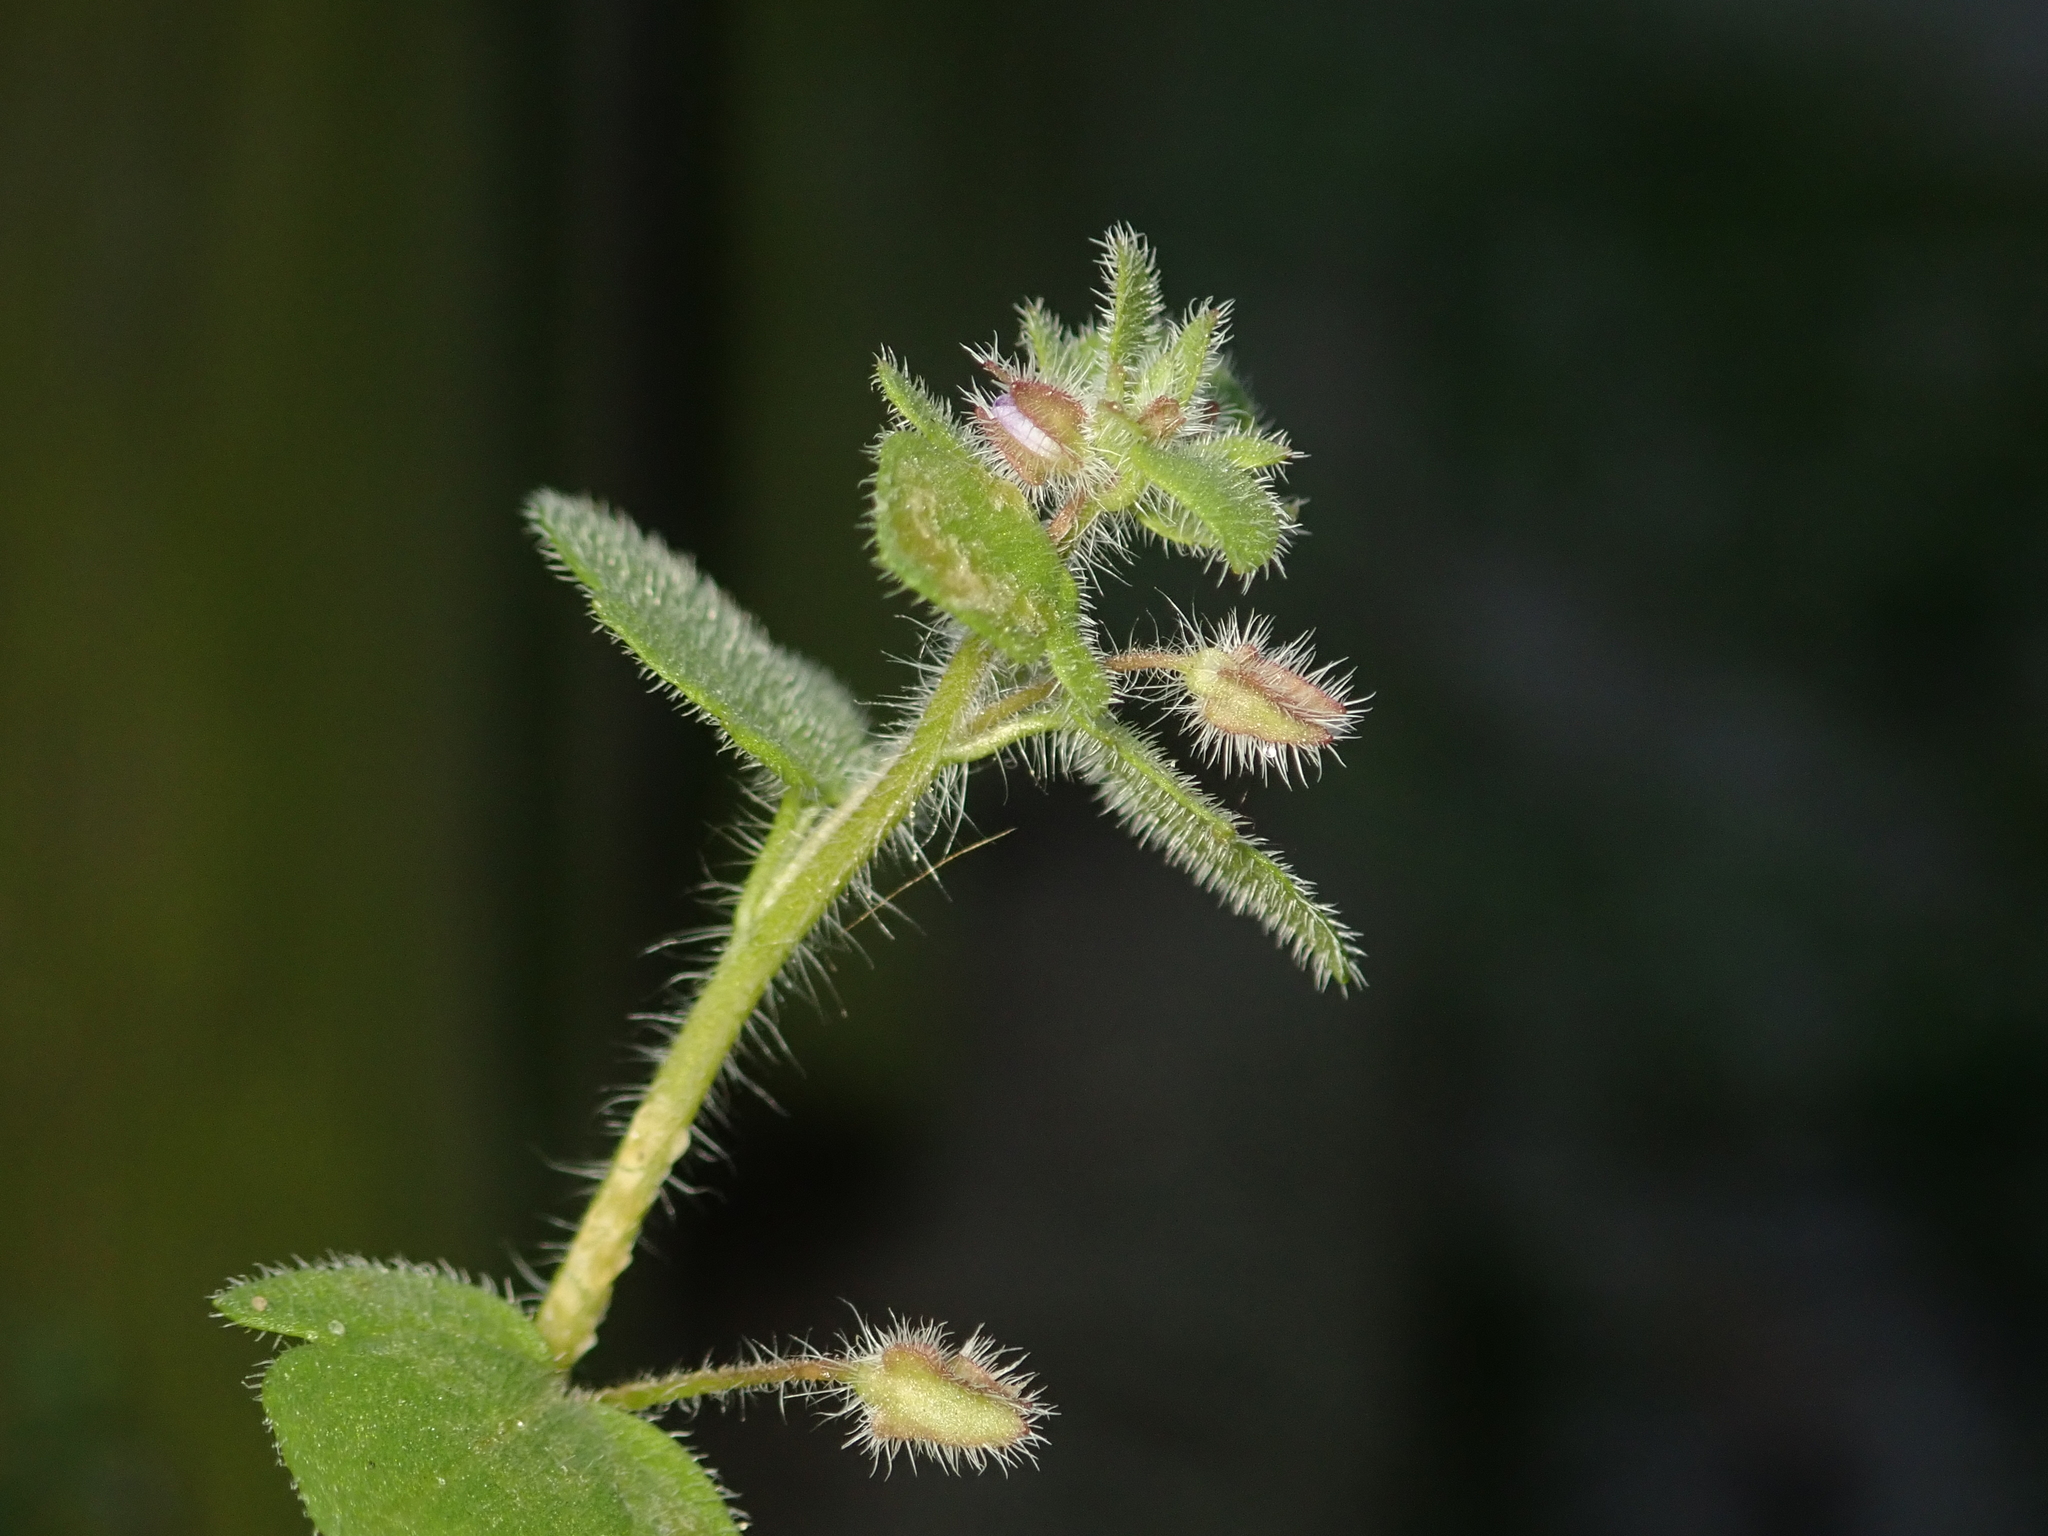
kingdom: Plantae
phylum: Tracheophyta
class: Magnoliopsida
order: Lamiales
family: Plantaginaceae
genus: Veronica
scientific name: Veronica sublobata
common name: False ivy-leaved speedwell
